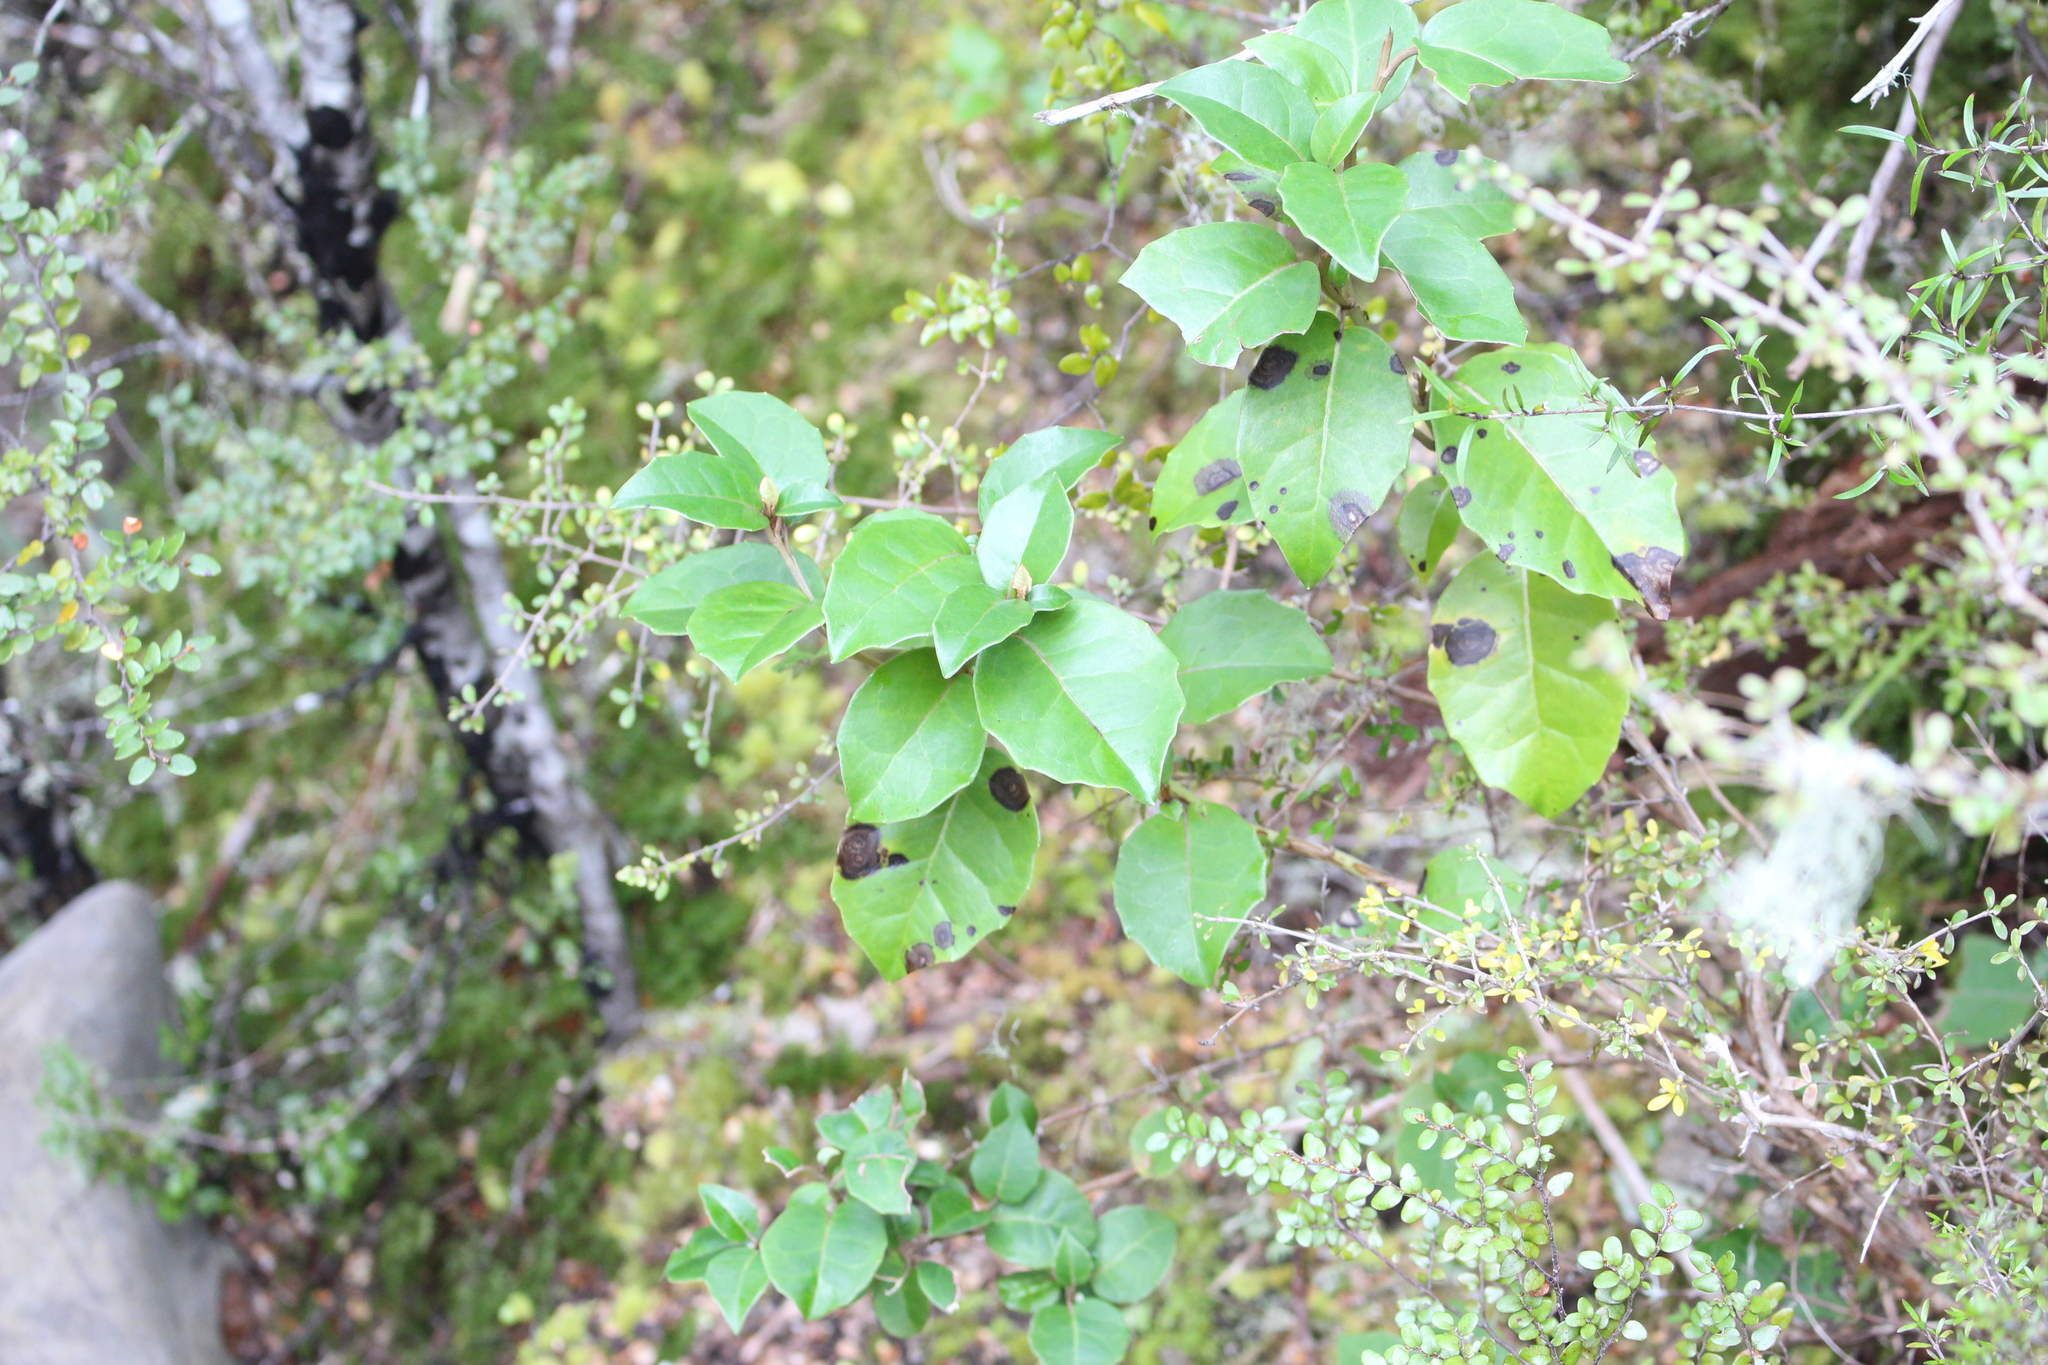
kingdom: Plantae
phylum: Tracheophyta
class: Magnoliopsida
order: Asterales
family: Asteraceae
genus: Olearia
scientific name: Olearia arborescens
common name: Glossy tree daisy
